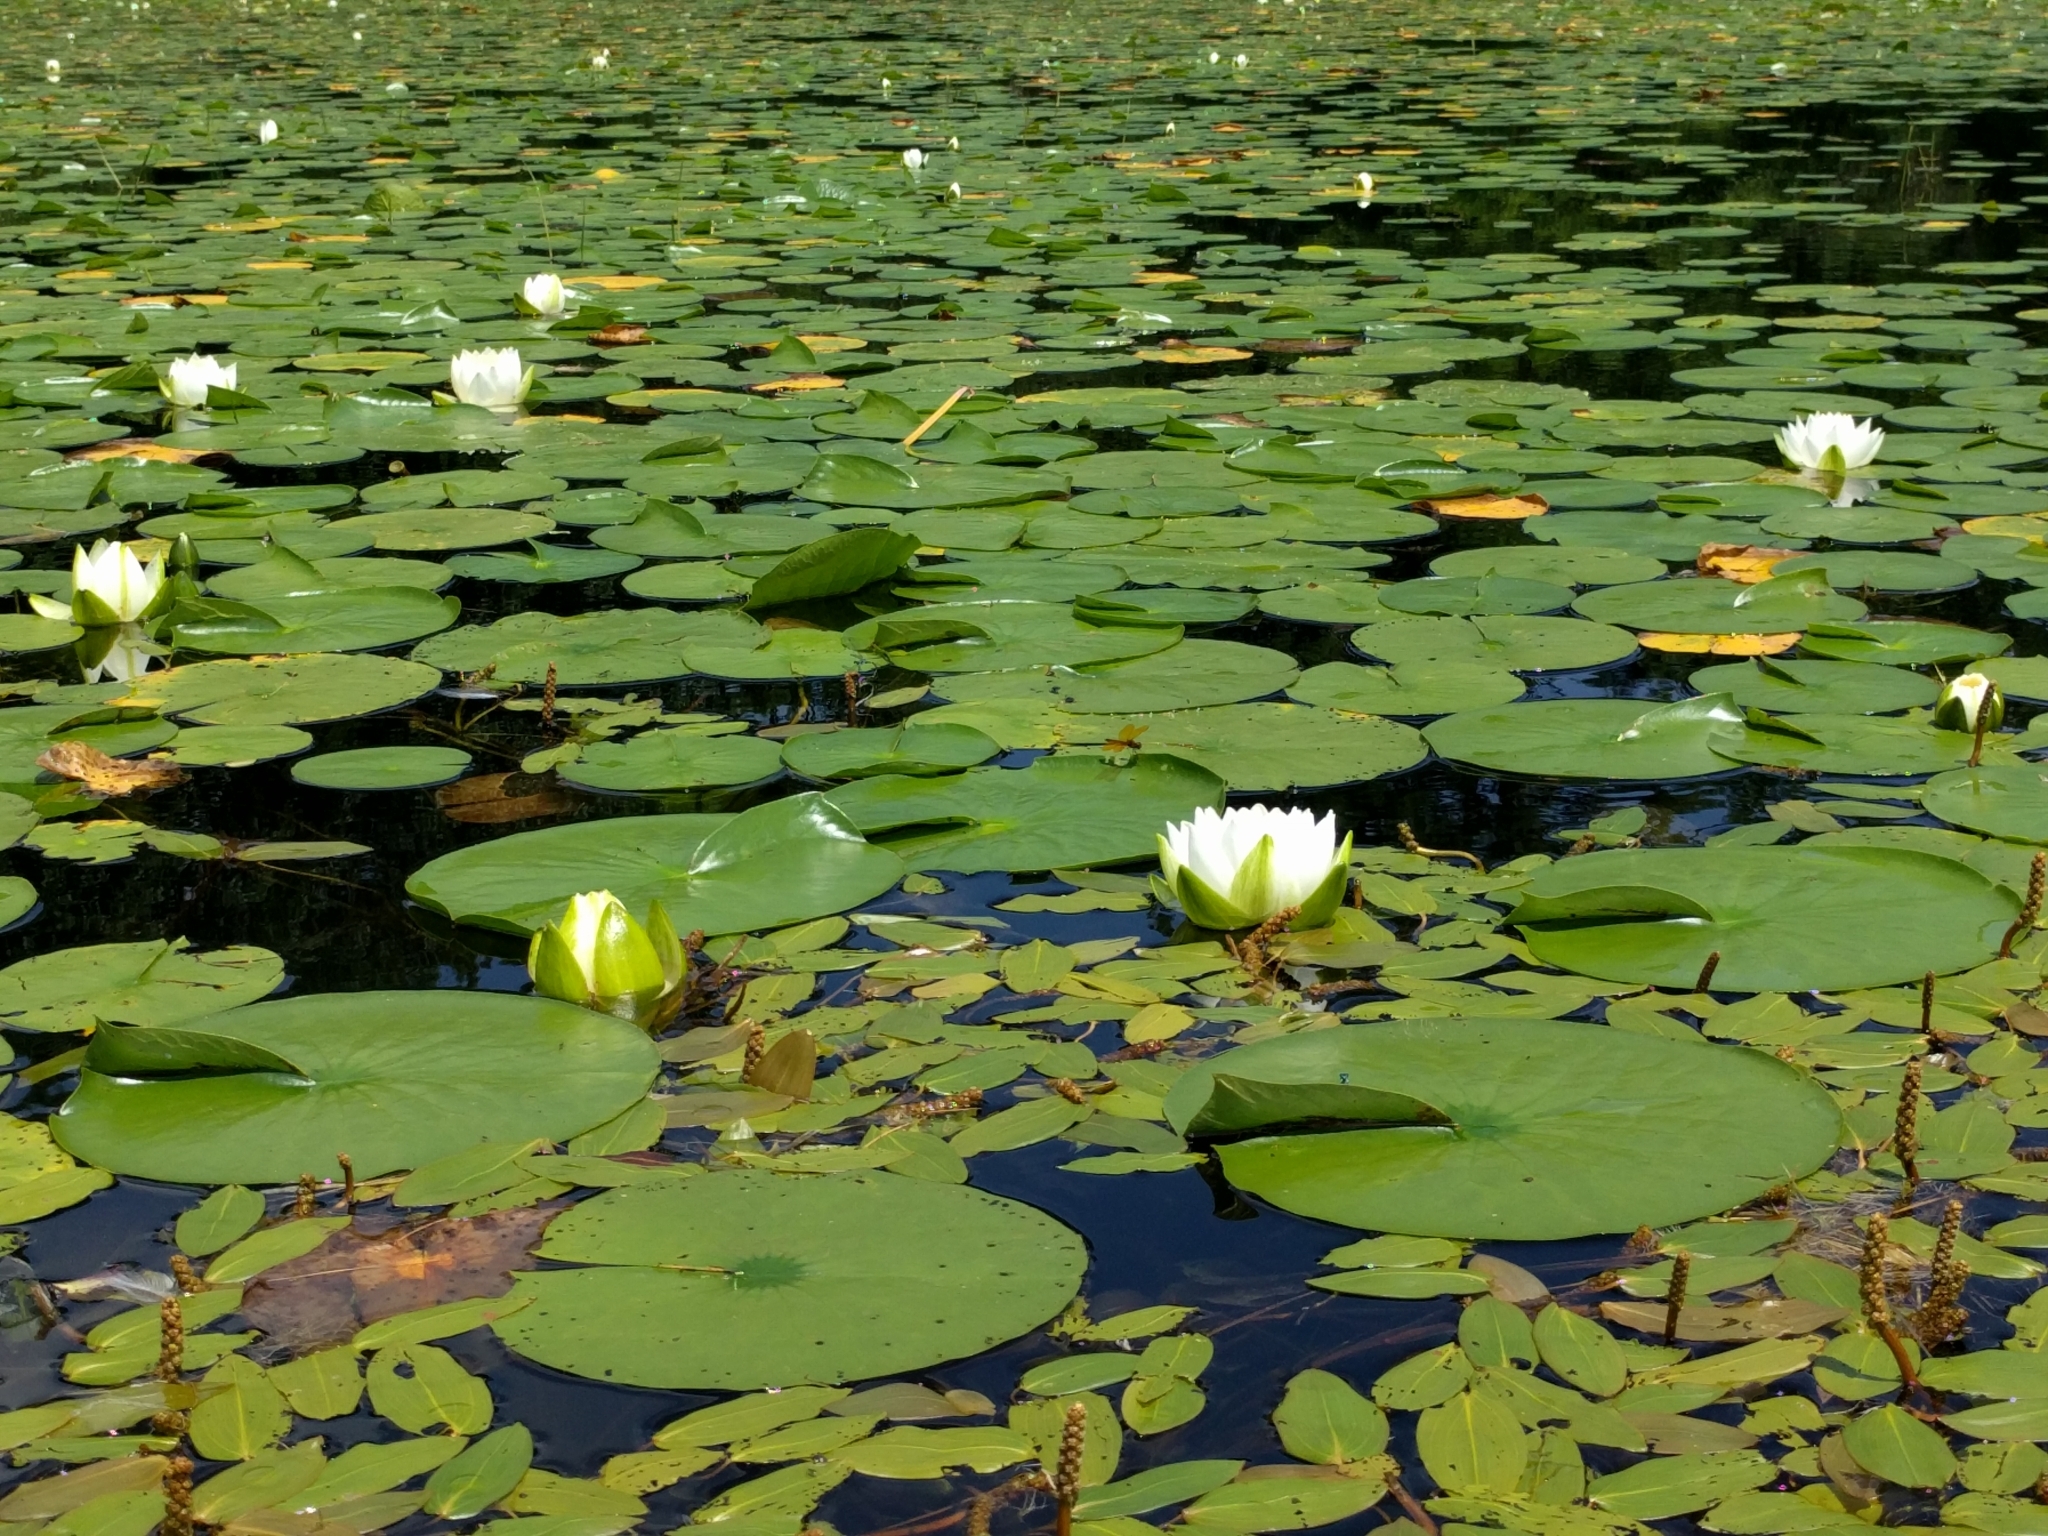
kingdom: Plantae
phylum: Tracheophyta
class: Magnoliopsida
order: Nymphaeales
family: Nymphaeaceae
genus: Nymphaea
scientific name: Nymphaea odorata
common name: Fragrant water-lily
